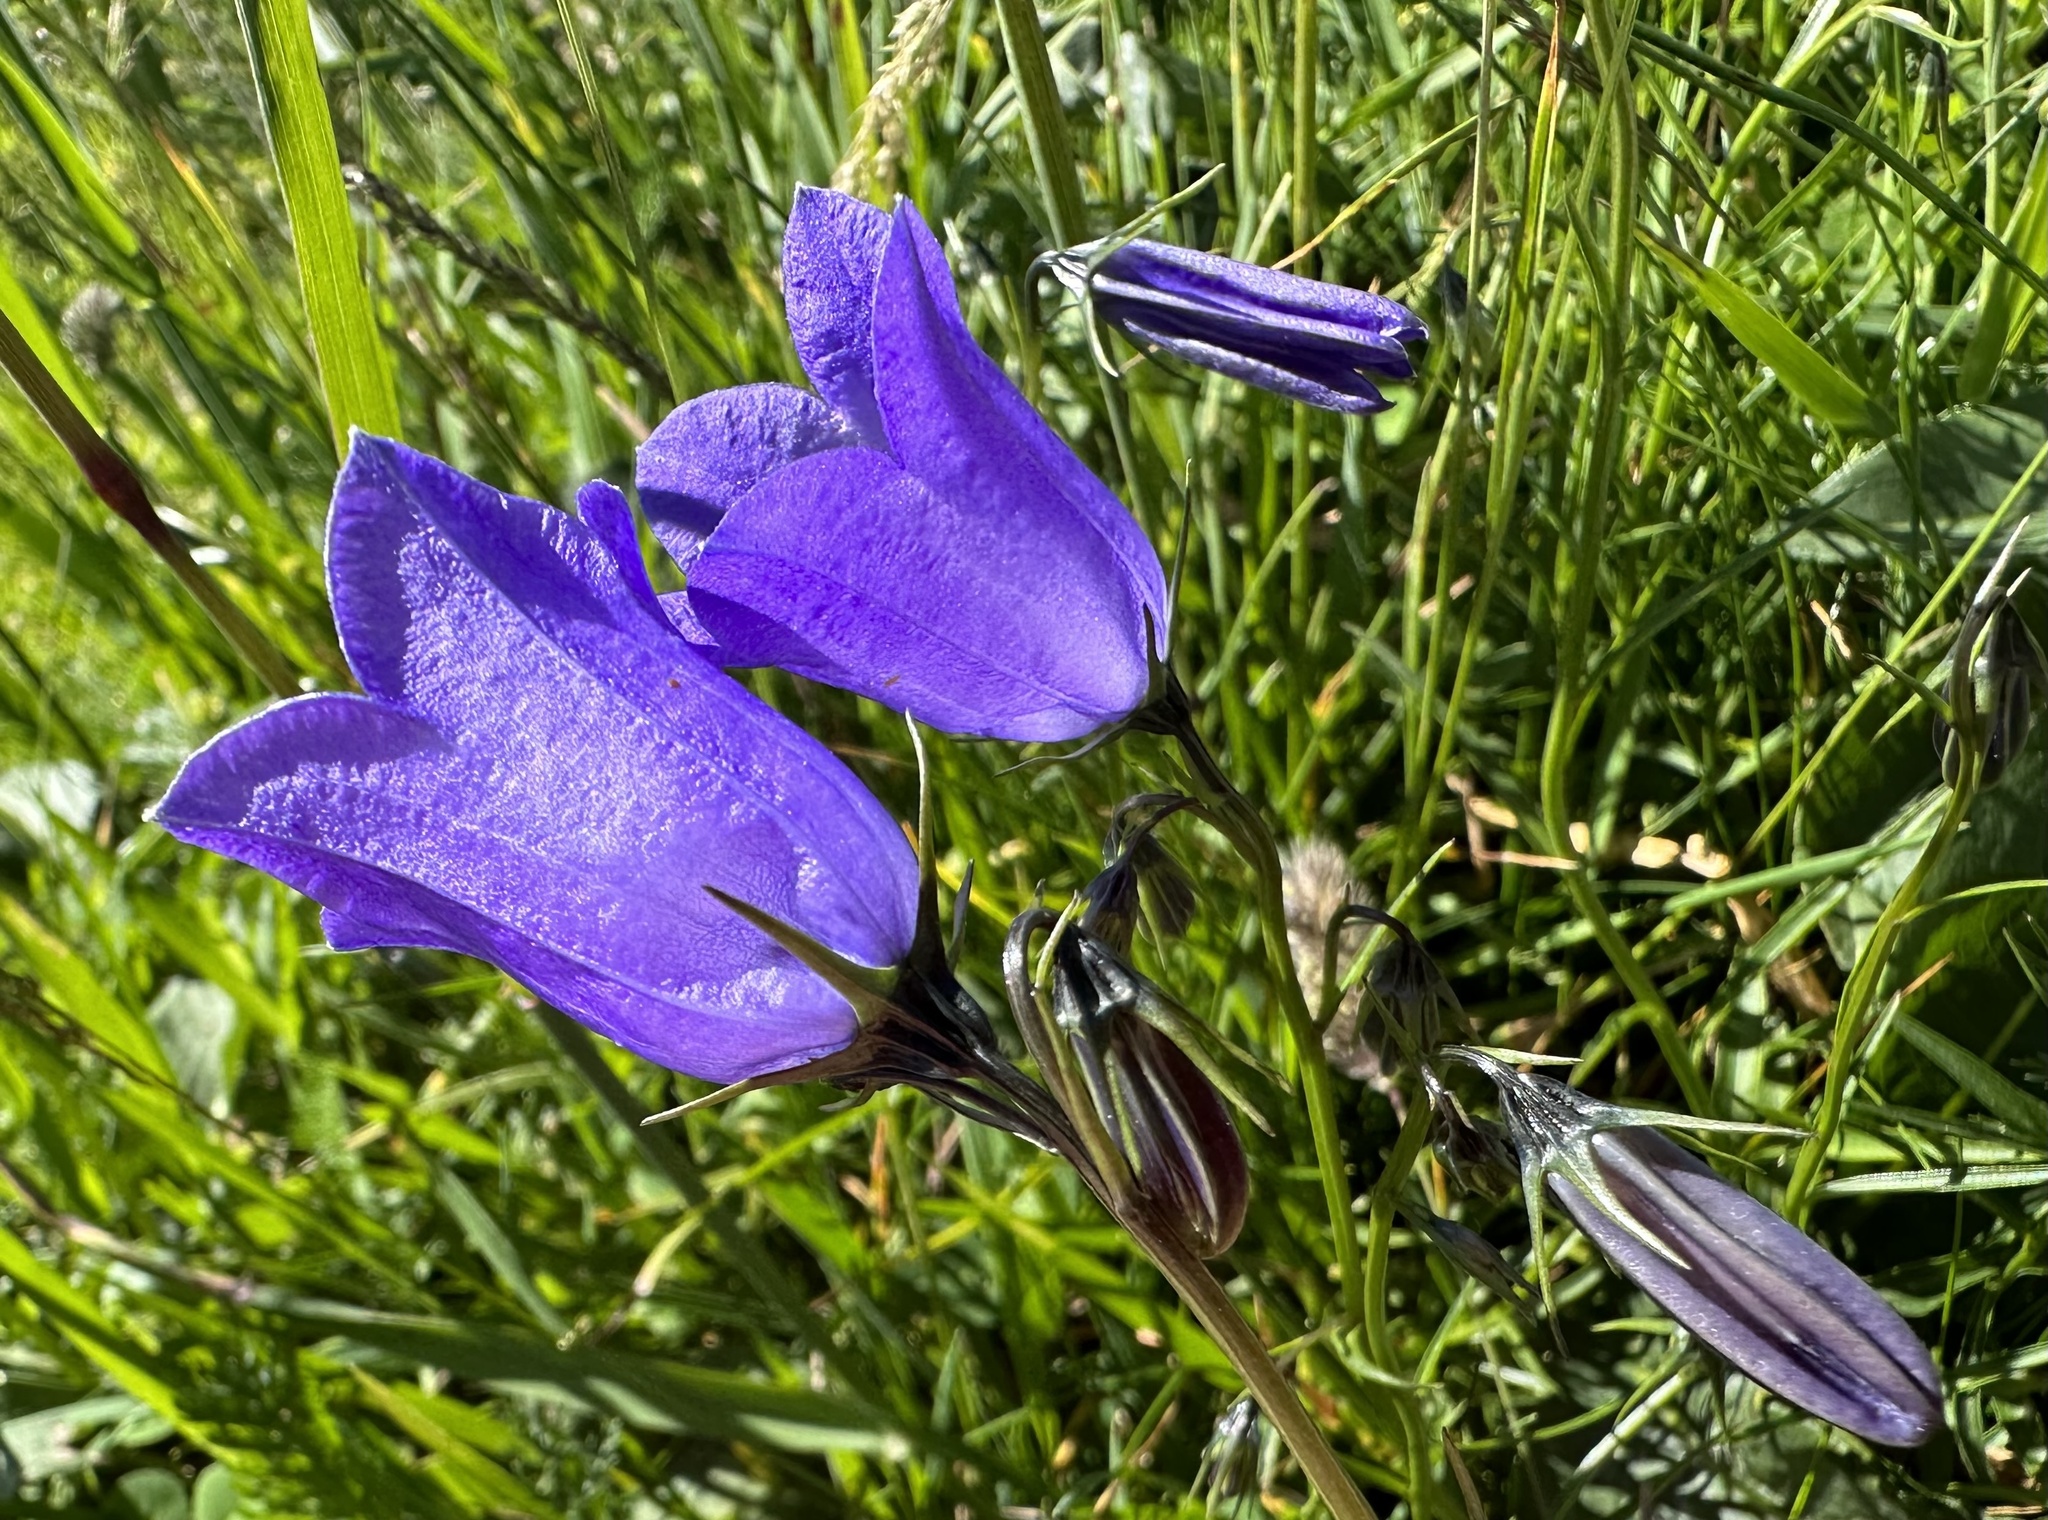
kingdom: Plantae
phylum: Tracheophyta
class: Magnoliopsida
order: Asterales
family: Campanulaceae
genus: Campanula
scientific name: Campanula scheuchzeri
